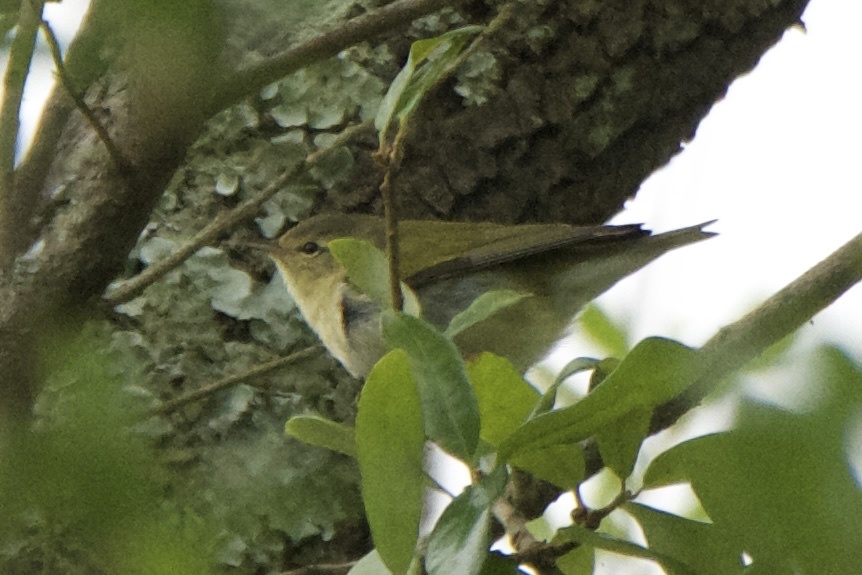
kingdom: Animalia
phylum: Chordata
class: Aves
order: Passeriformes
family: Parulidae
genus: Leiothlypis
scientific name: Leiothlypis peregrina
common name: Tennessee warbler
